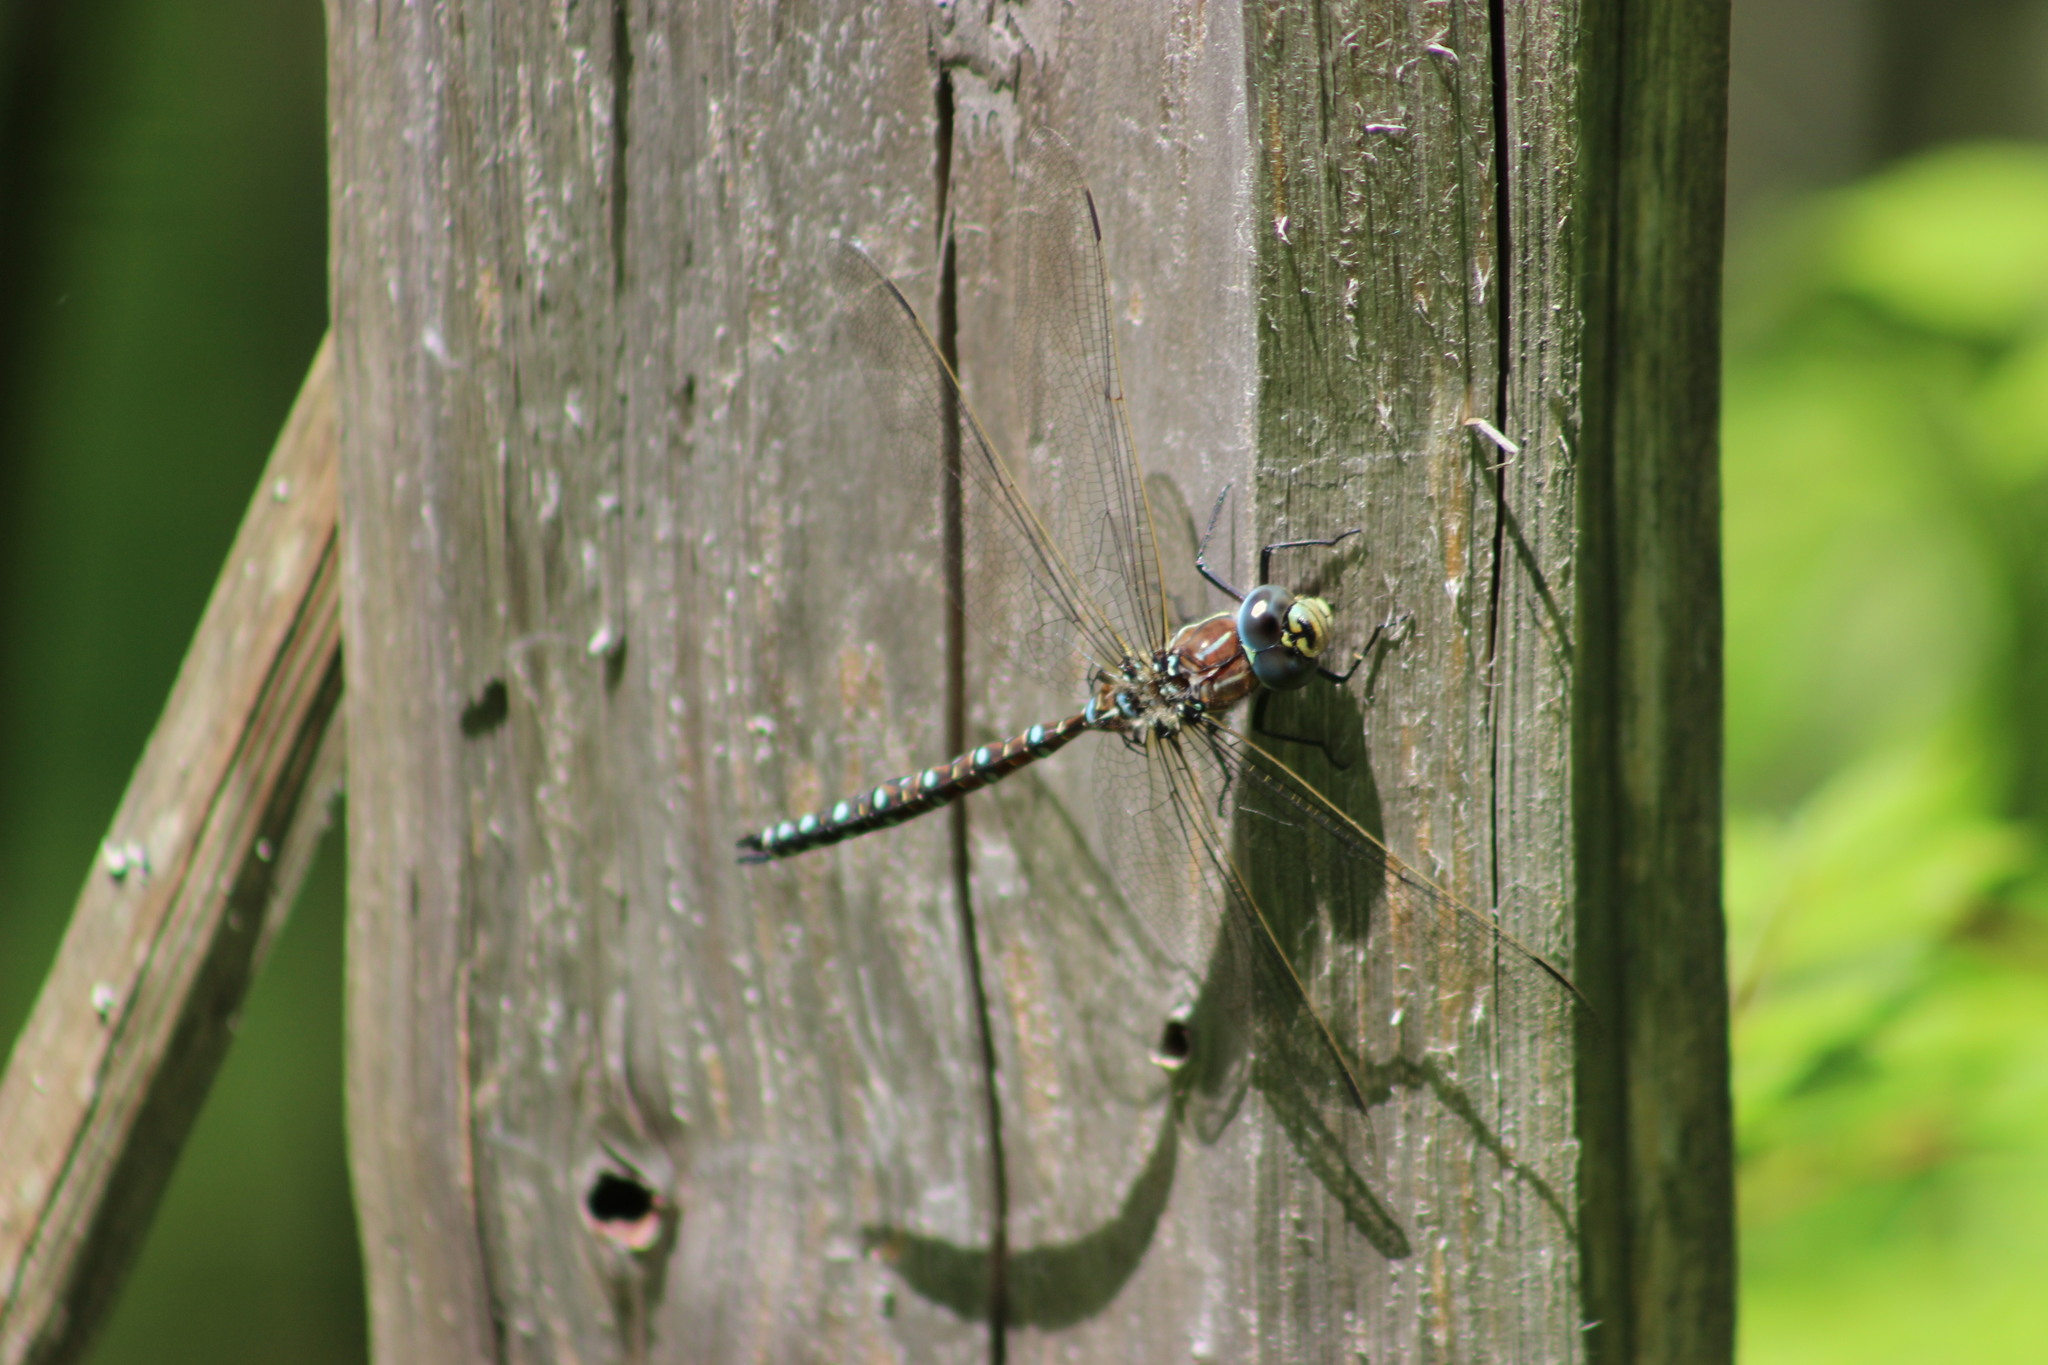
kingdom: Animalia
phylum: Arthropoda
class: Insecta
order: Odonata
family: Aeshnidae
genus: Aeshna
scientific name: Aeshna juncea
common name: Moorland hawker
